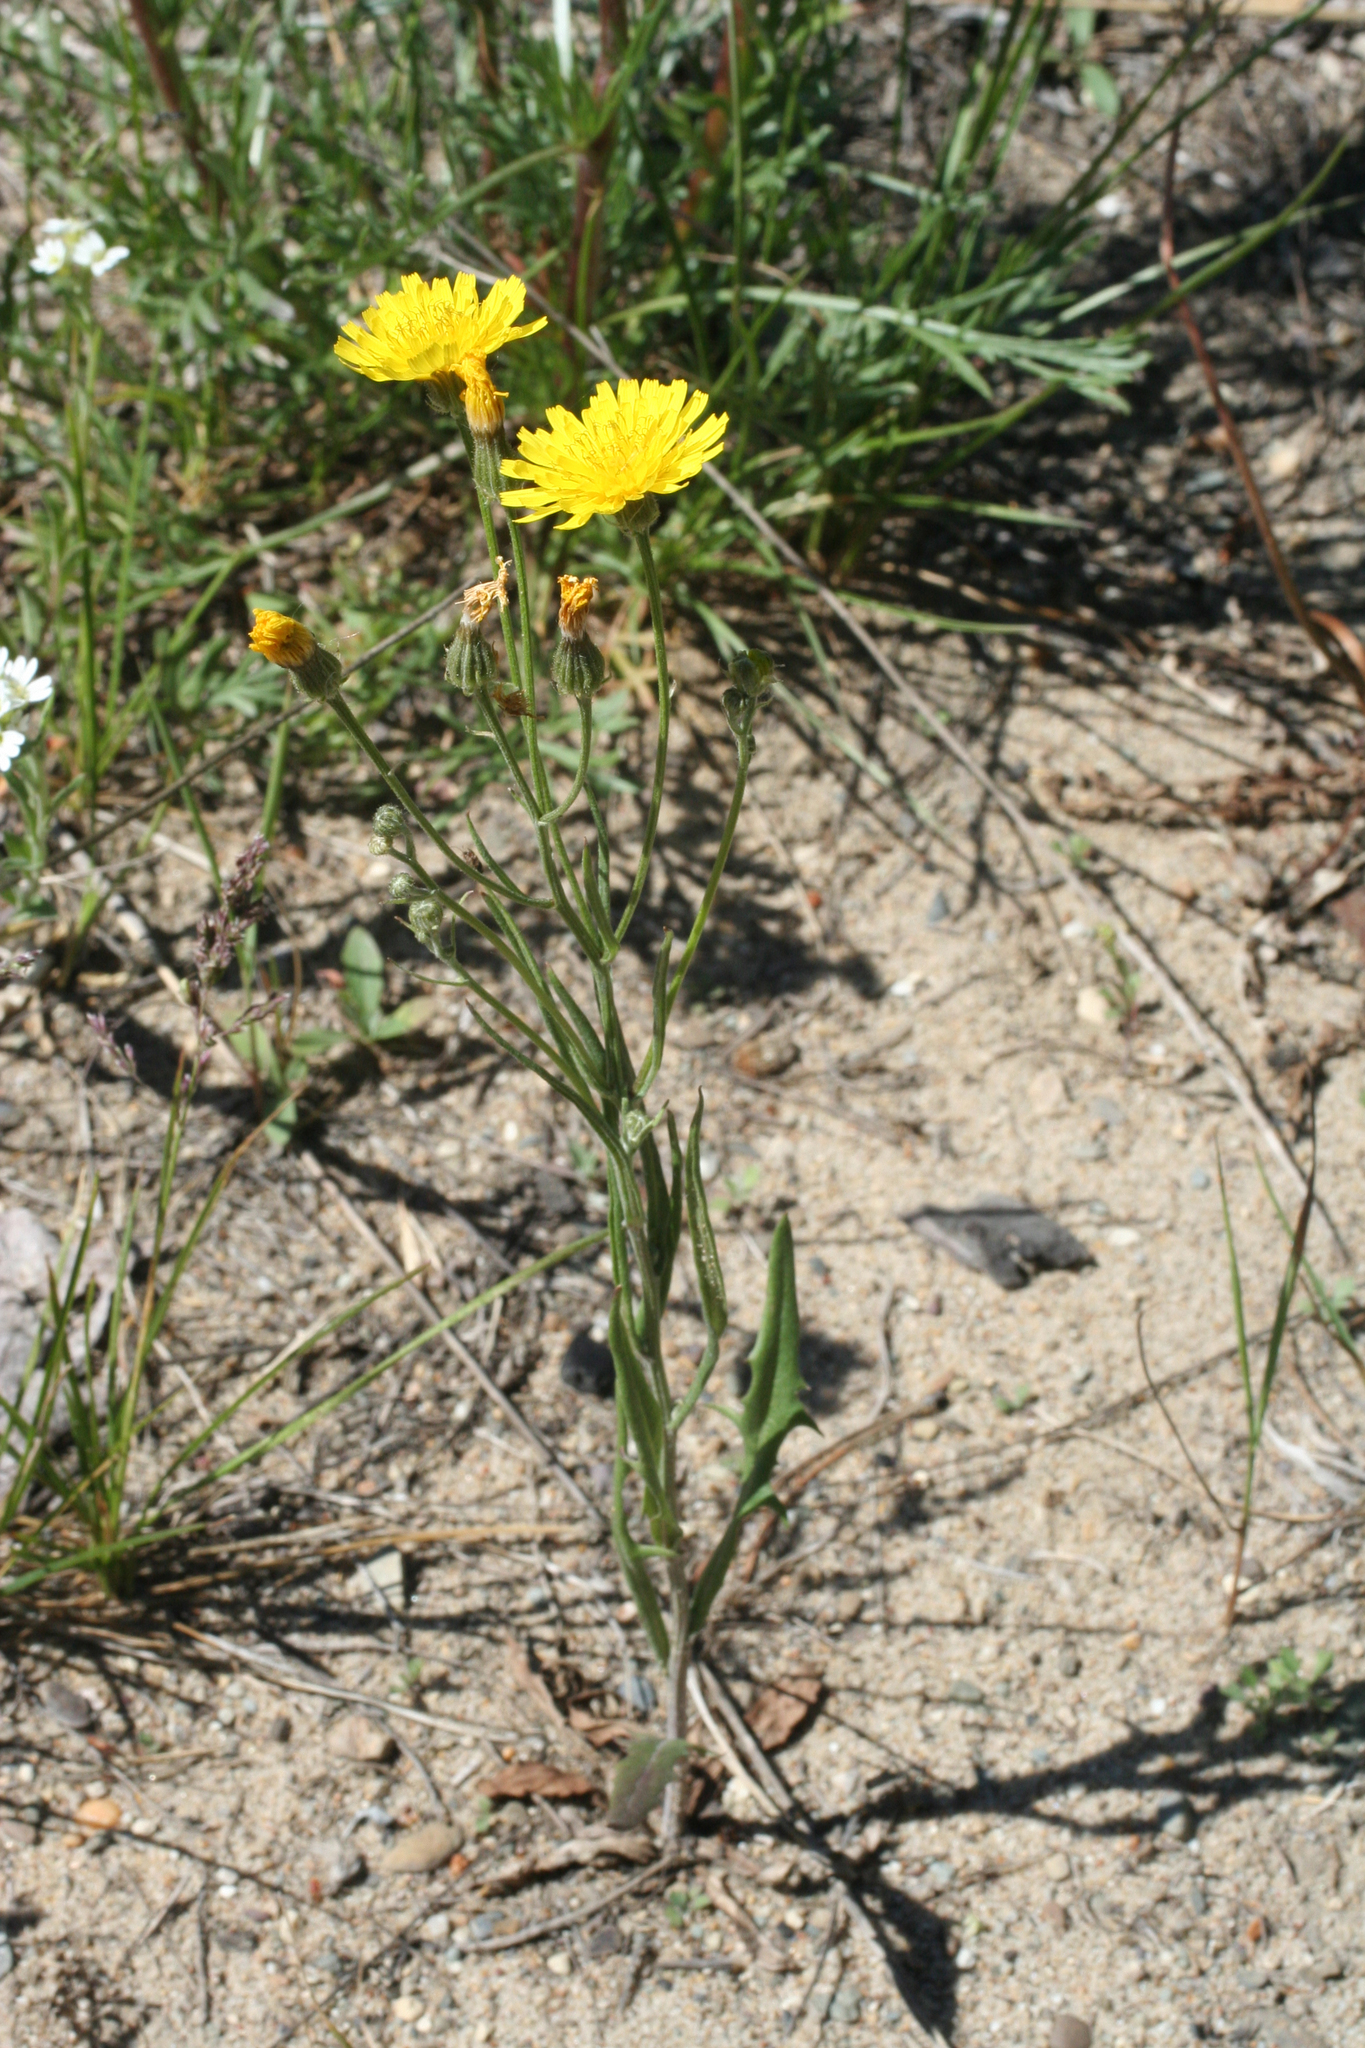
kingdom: Plantae
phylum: Tracheophyta
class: Magnoliopsida
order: Asterales
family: Asteraceae
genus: Crepis
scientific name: Crepis tectorum
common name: Narrow-leaved hawk's-beard
